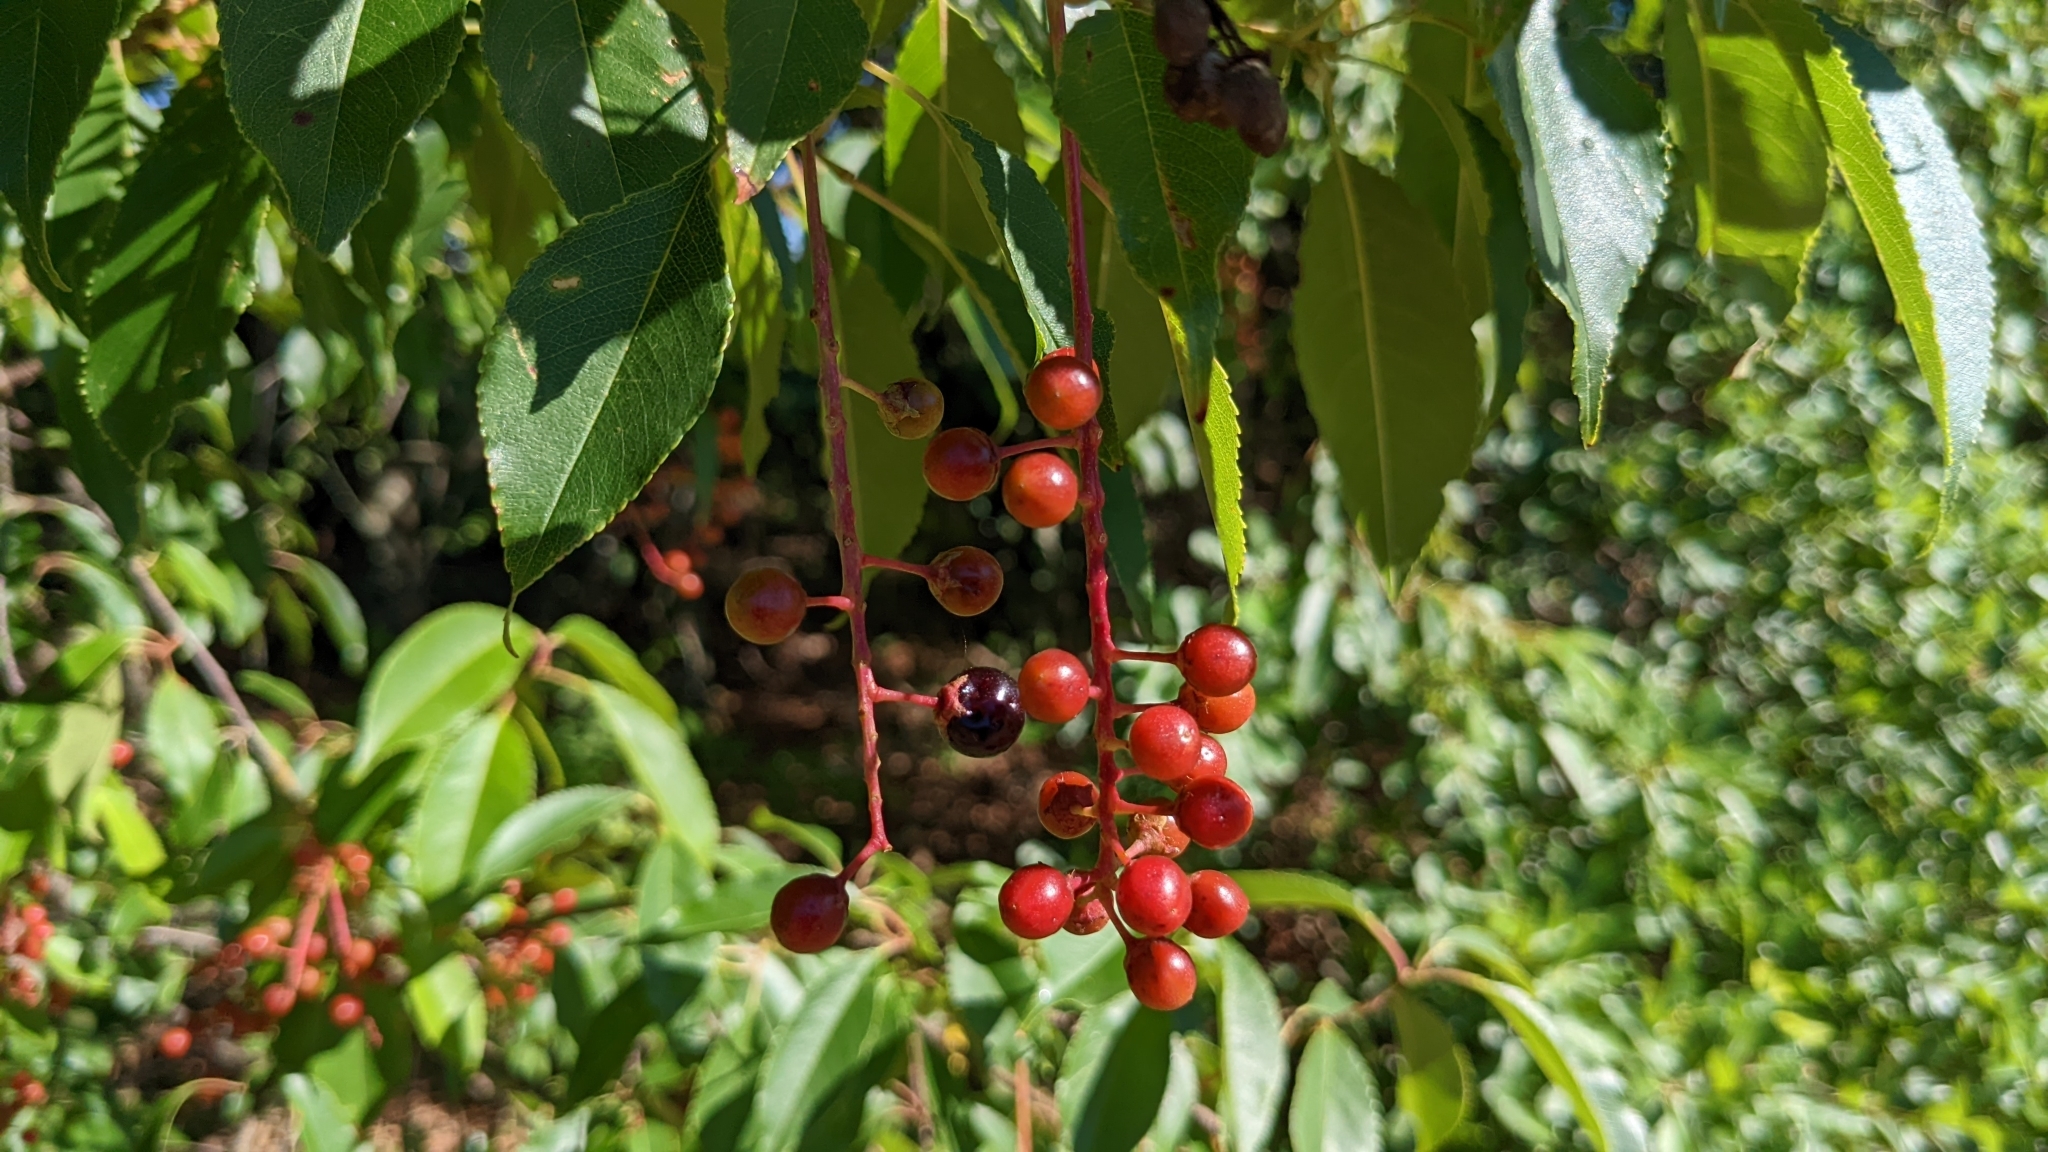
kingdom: Plantae
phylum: Tracheophyta
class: Magnoliopsida
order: Rosales
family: Rosaceae
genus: Prunus
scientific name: Prunus serotina
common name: Black cherry
